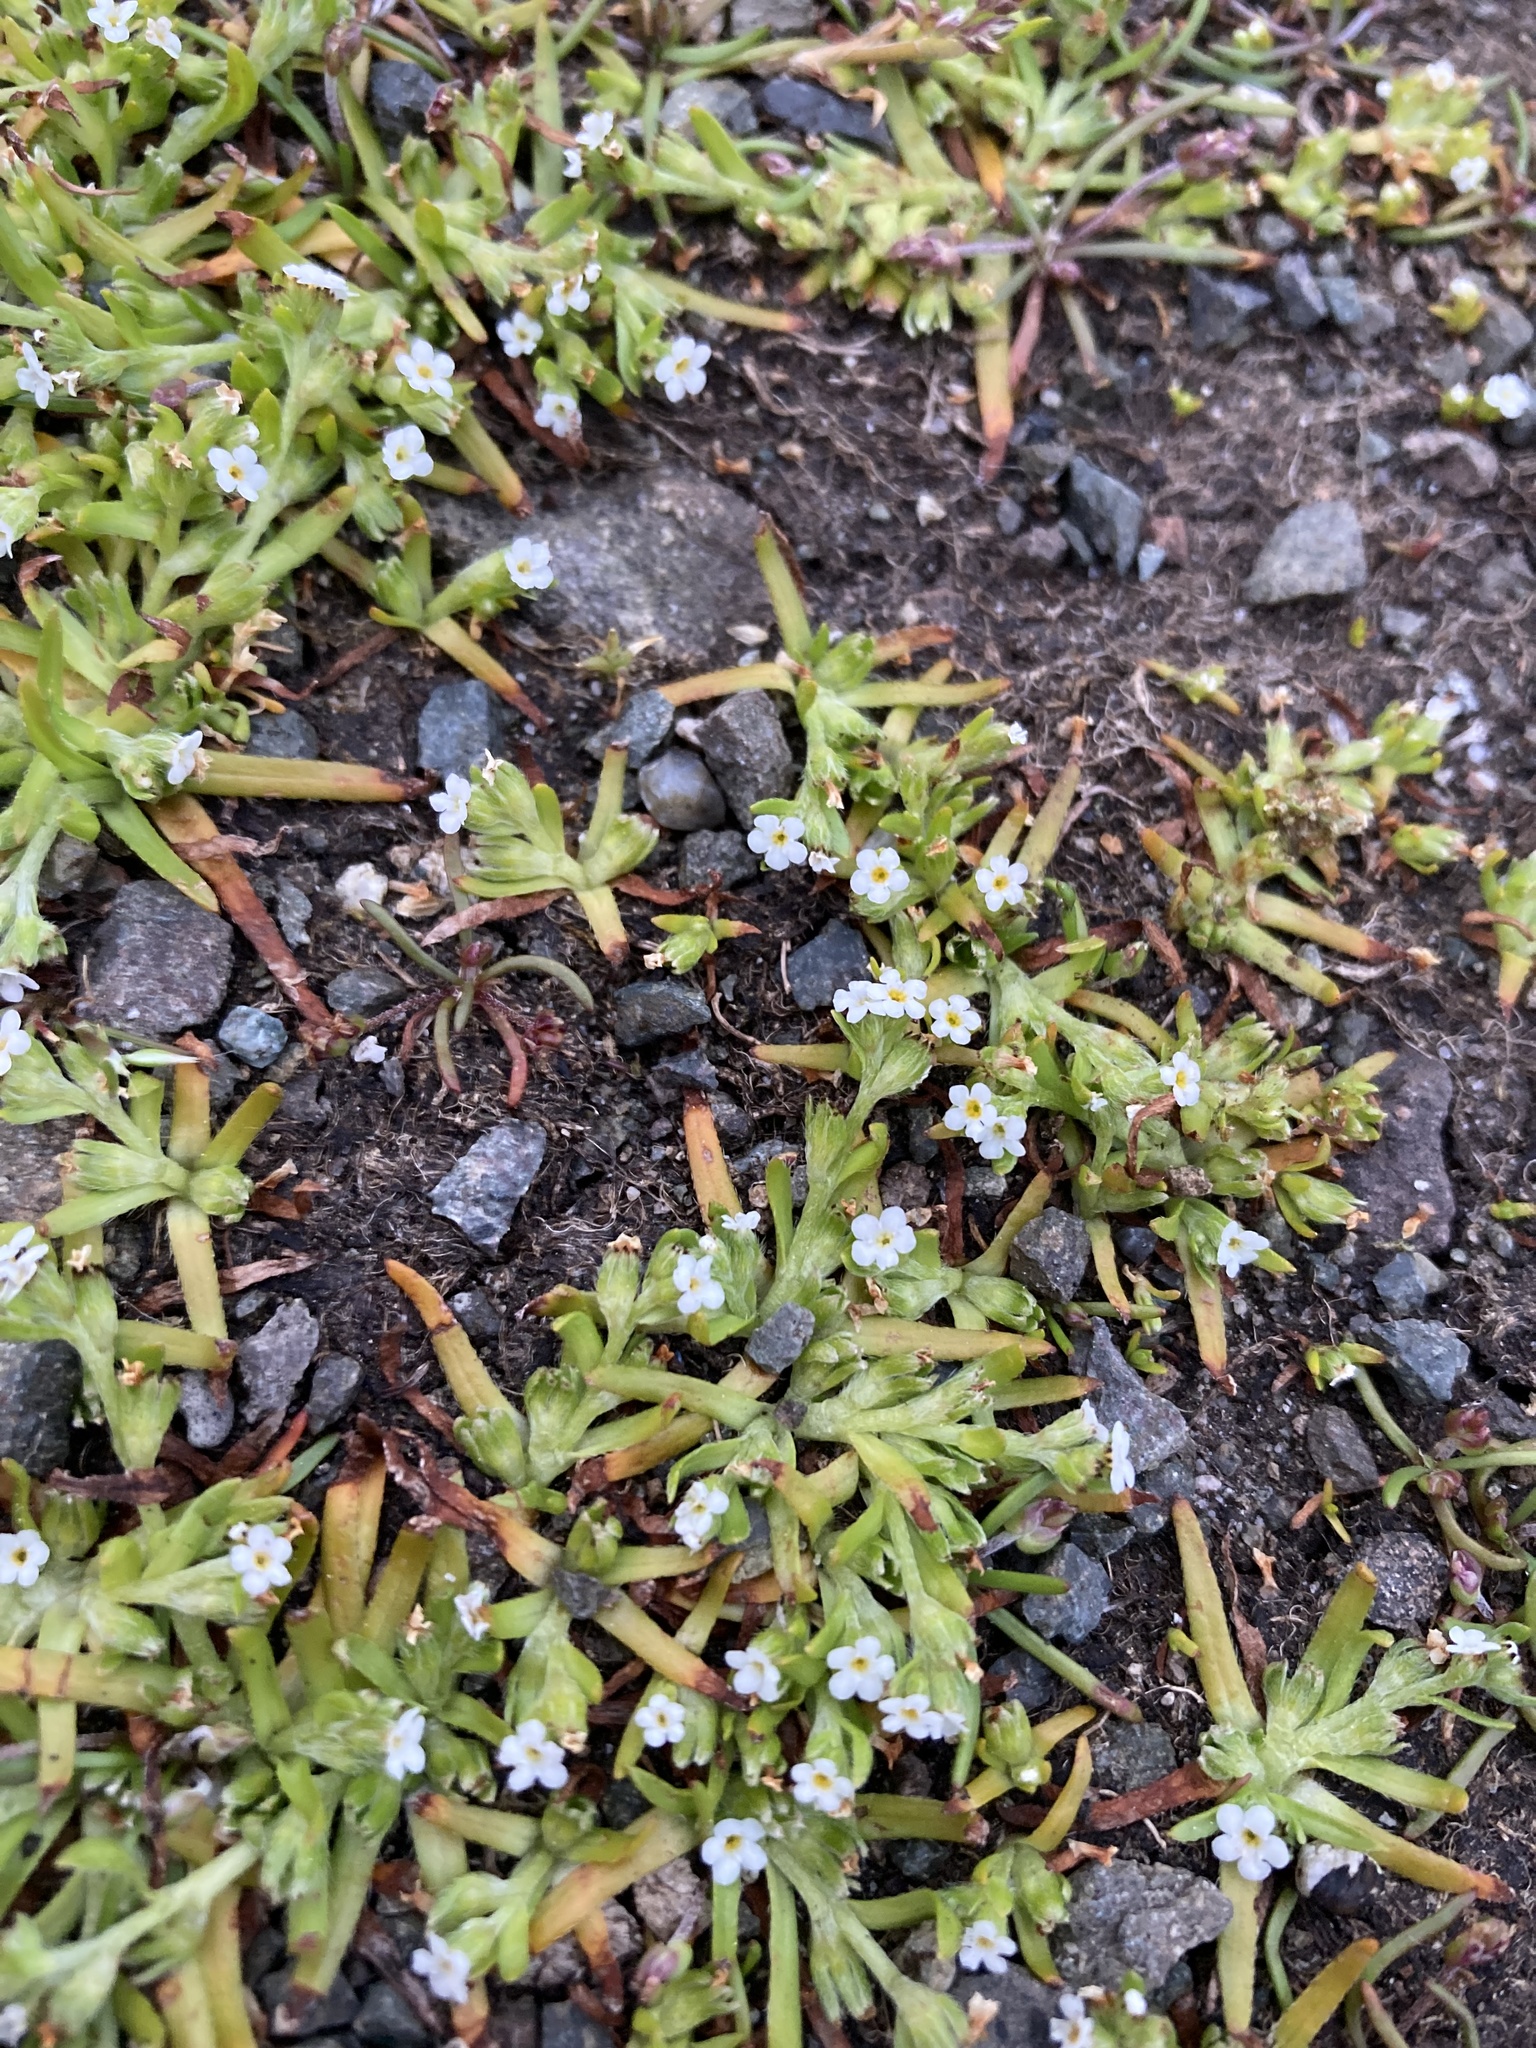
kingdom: Plantae
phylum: Tracheophyta
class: Magnoliopsida
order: Boraginales
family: Boraginaceae
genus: Plagiobothrys
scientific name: Plagiobothrys scouleri
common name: White forget-me-not
